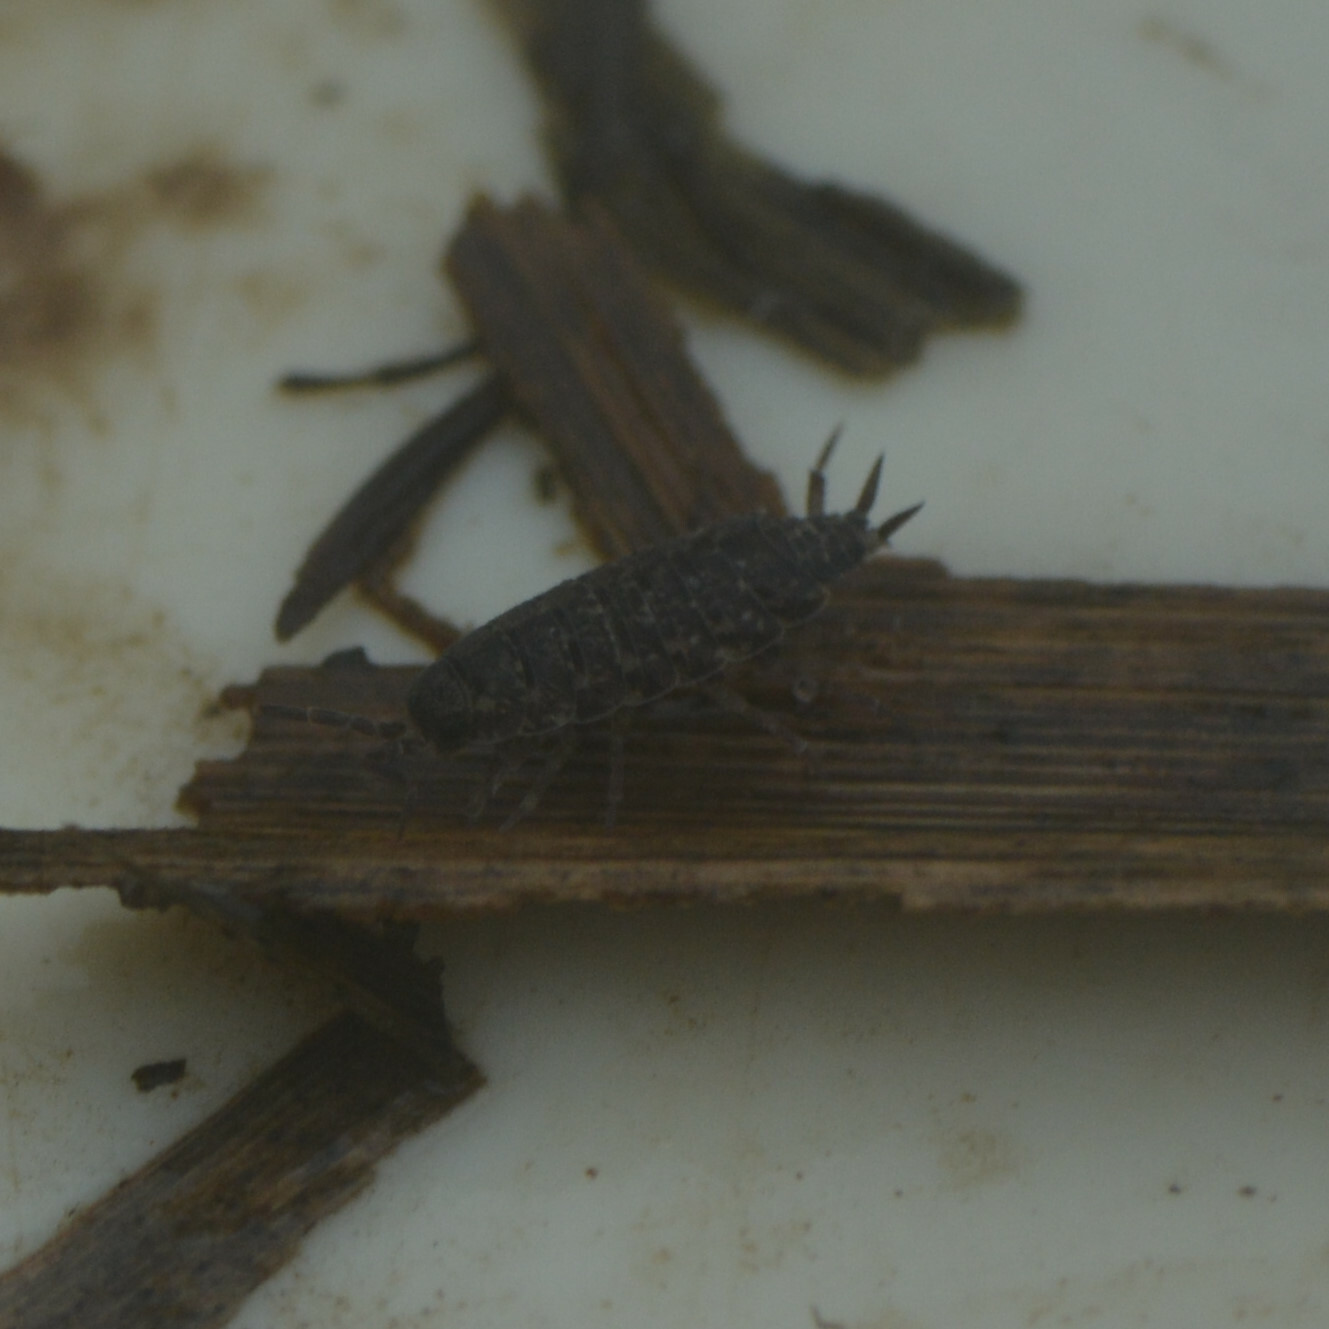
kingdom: Animalia
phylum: Arthropoda
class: Malacostraca
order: Isopoda
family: Porcellionidae
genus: Porcellionides
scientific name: Porcellionides cingendus
